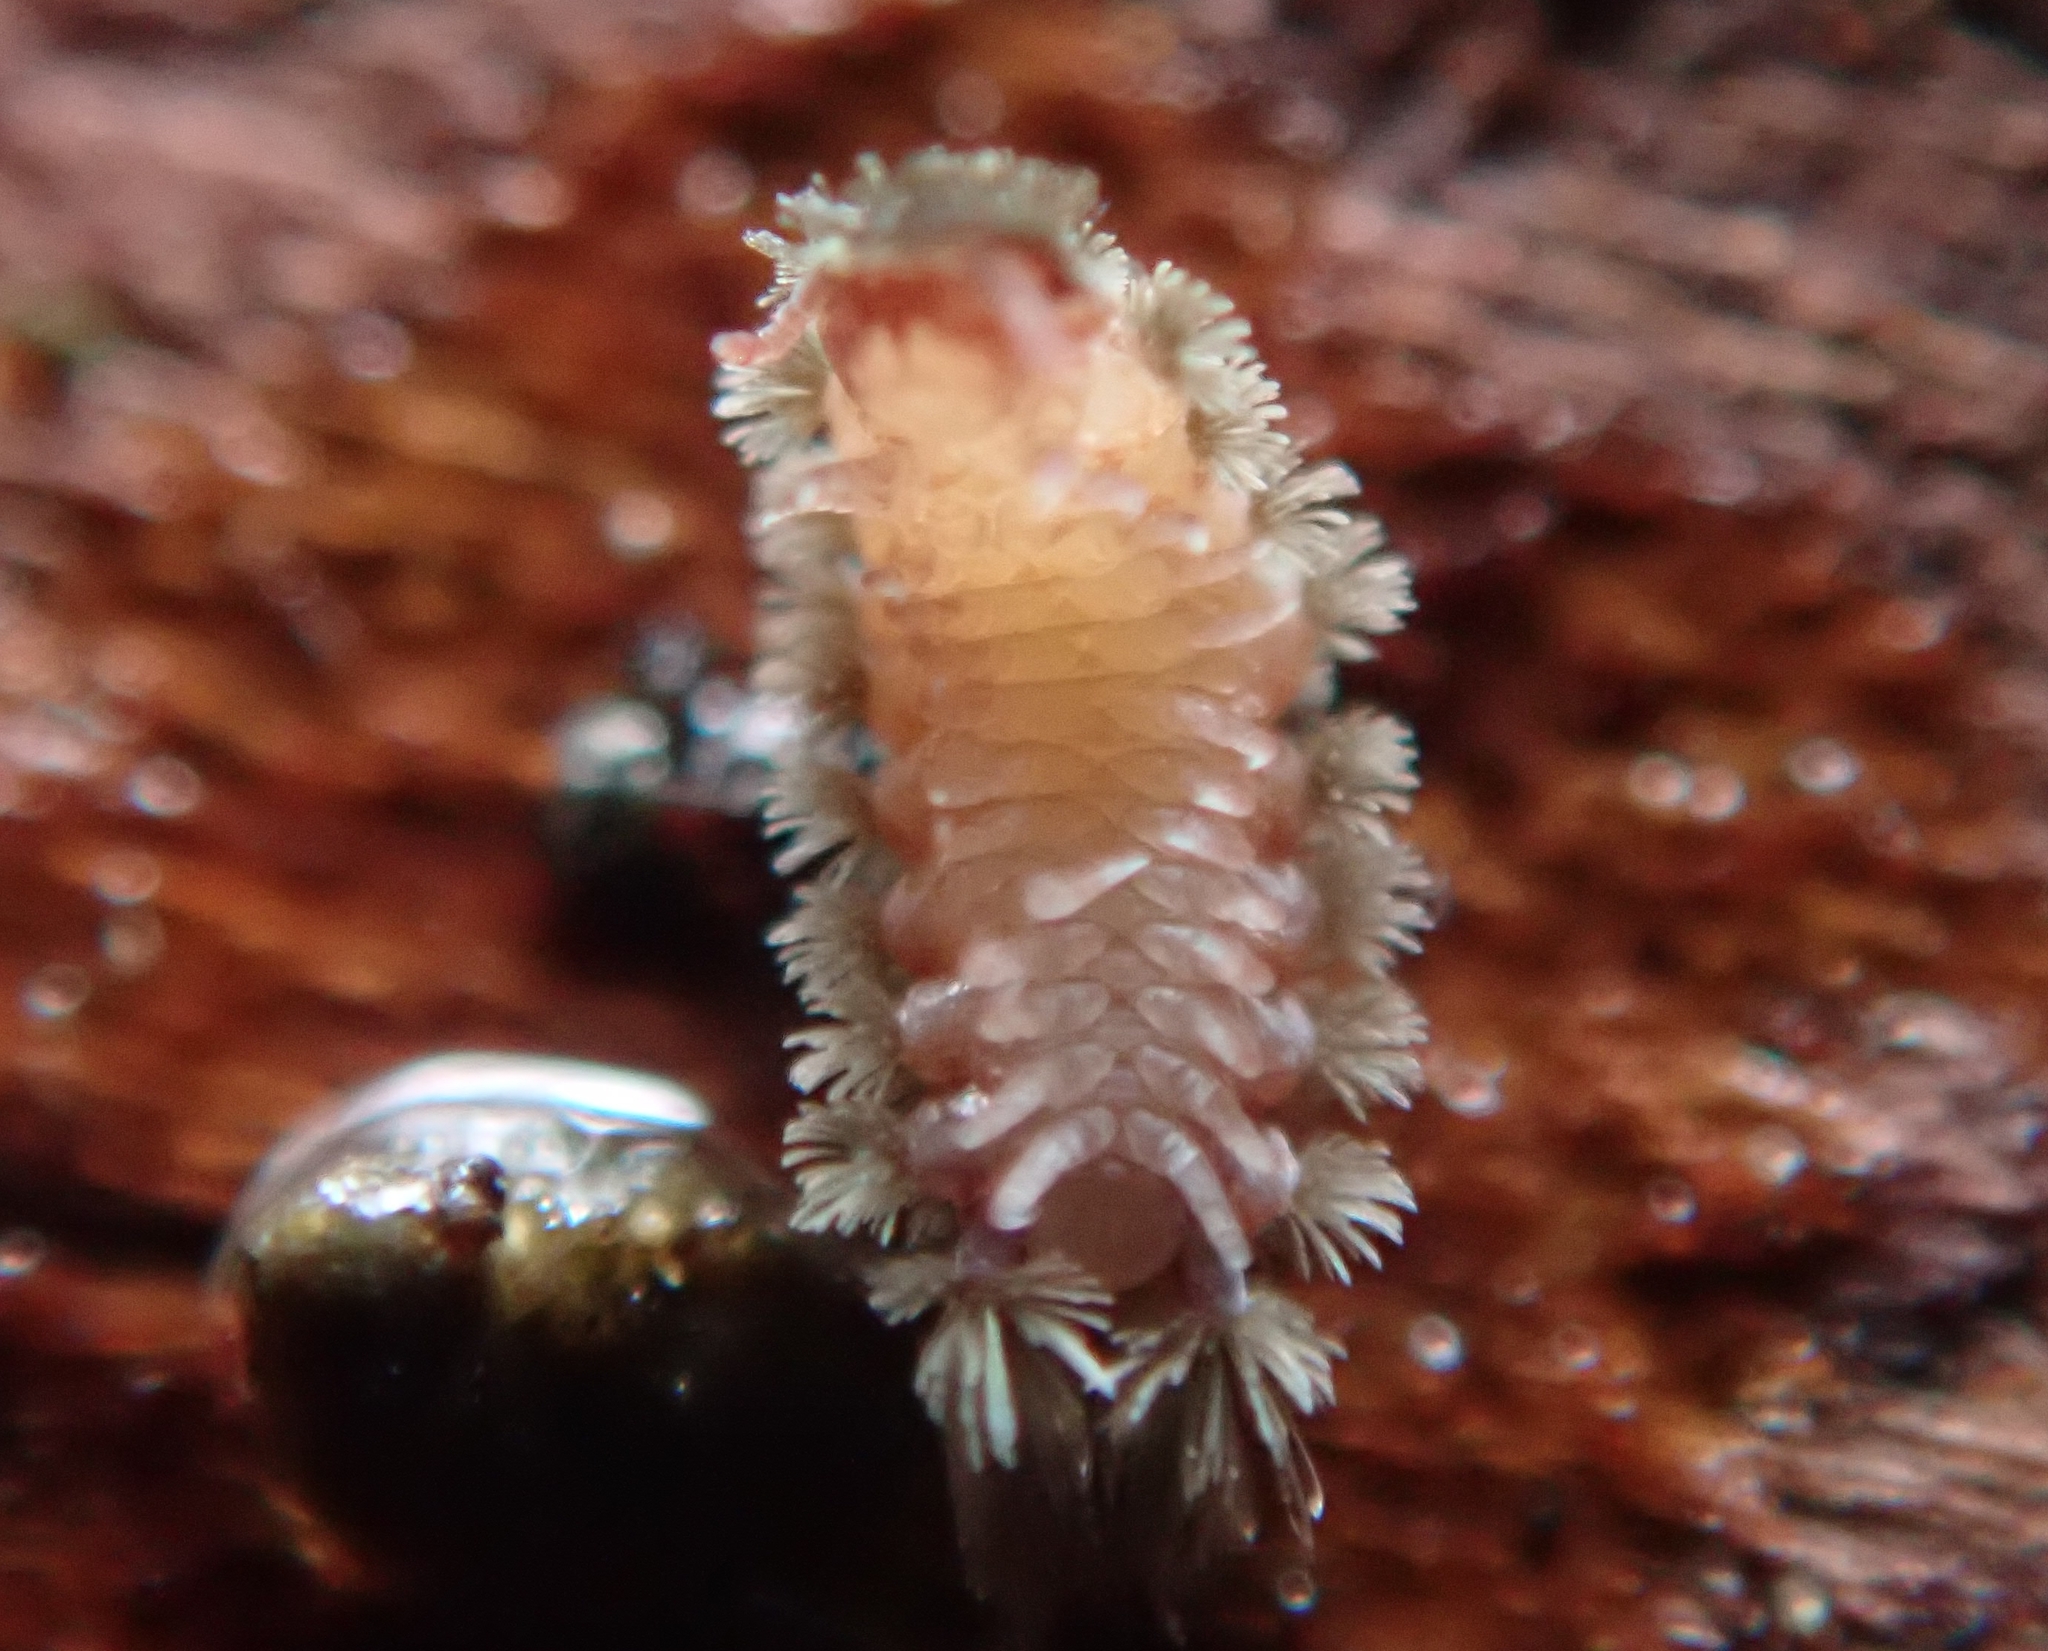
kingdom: Animalia
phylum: Arthropoda
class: Diplopoda
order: Polyxenida
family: Polyxenidae
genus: Polyxenus
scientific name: Polyxenus lagurus
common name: Bristly millipede
